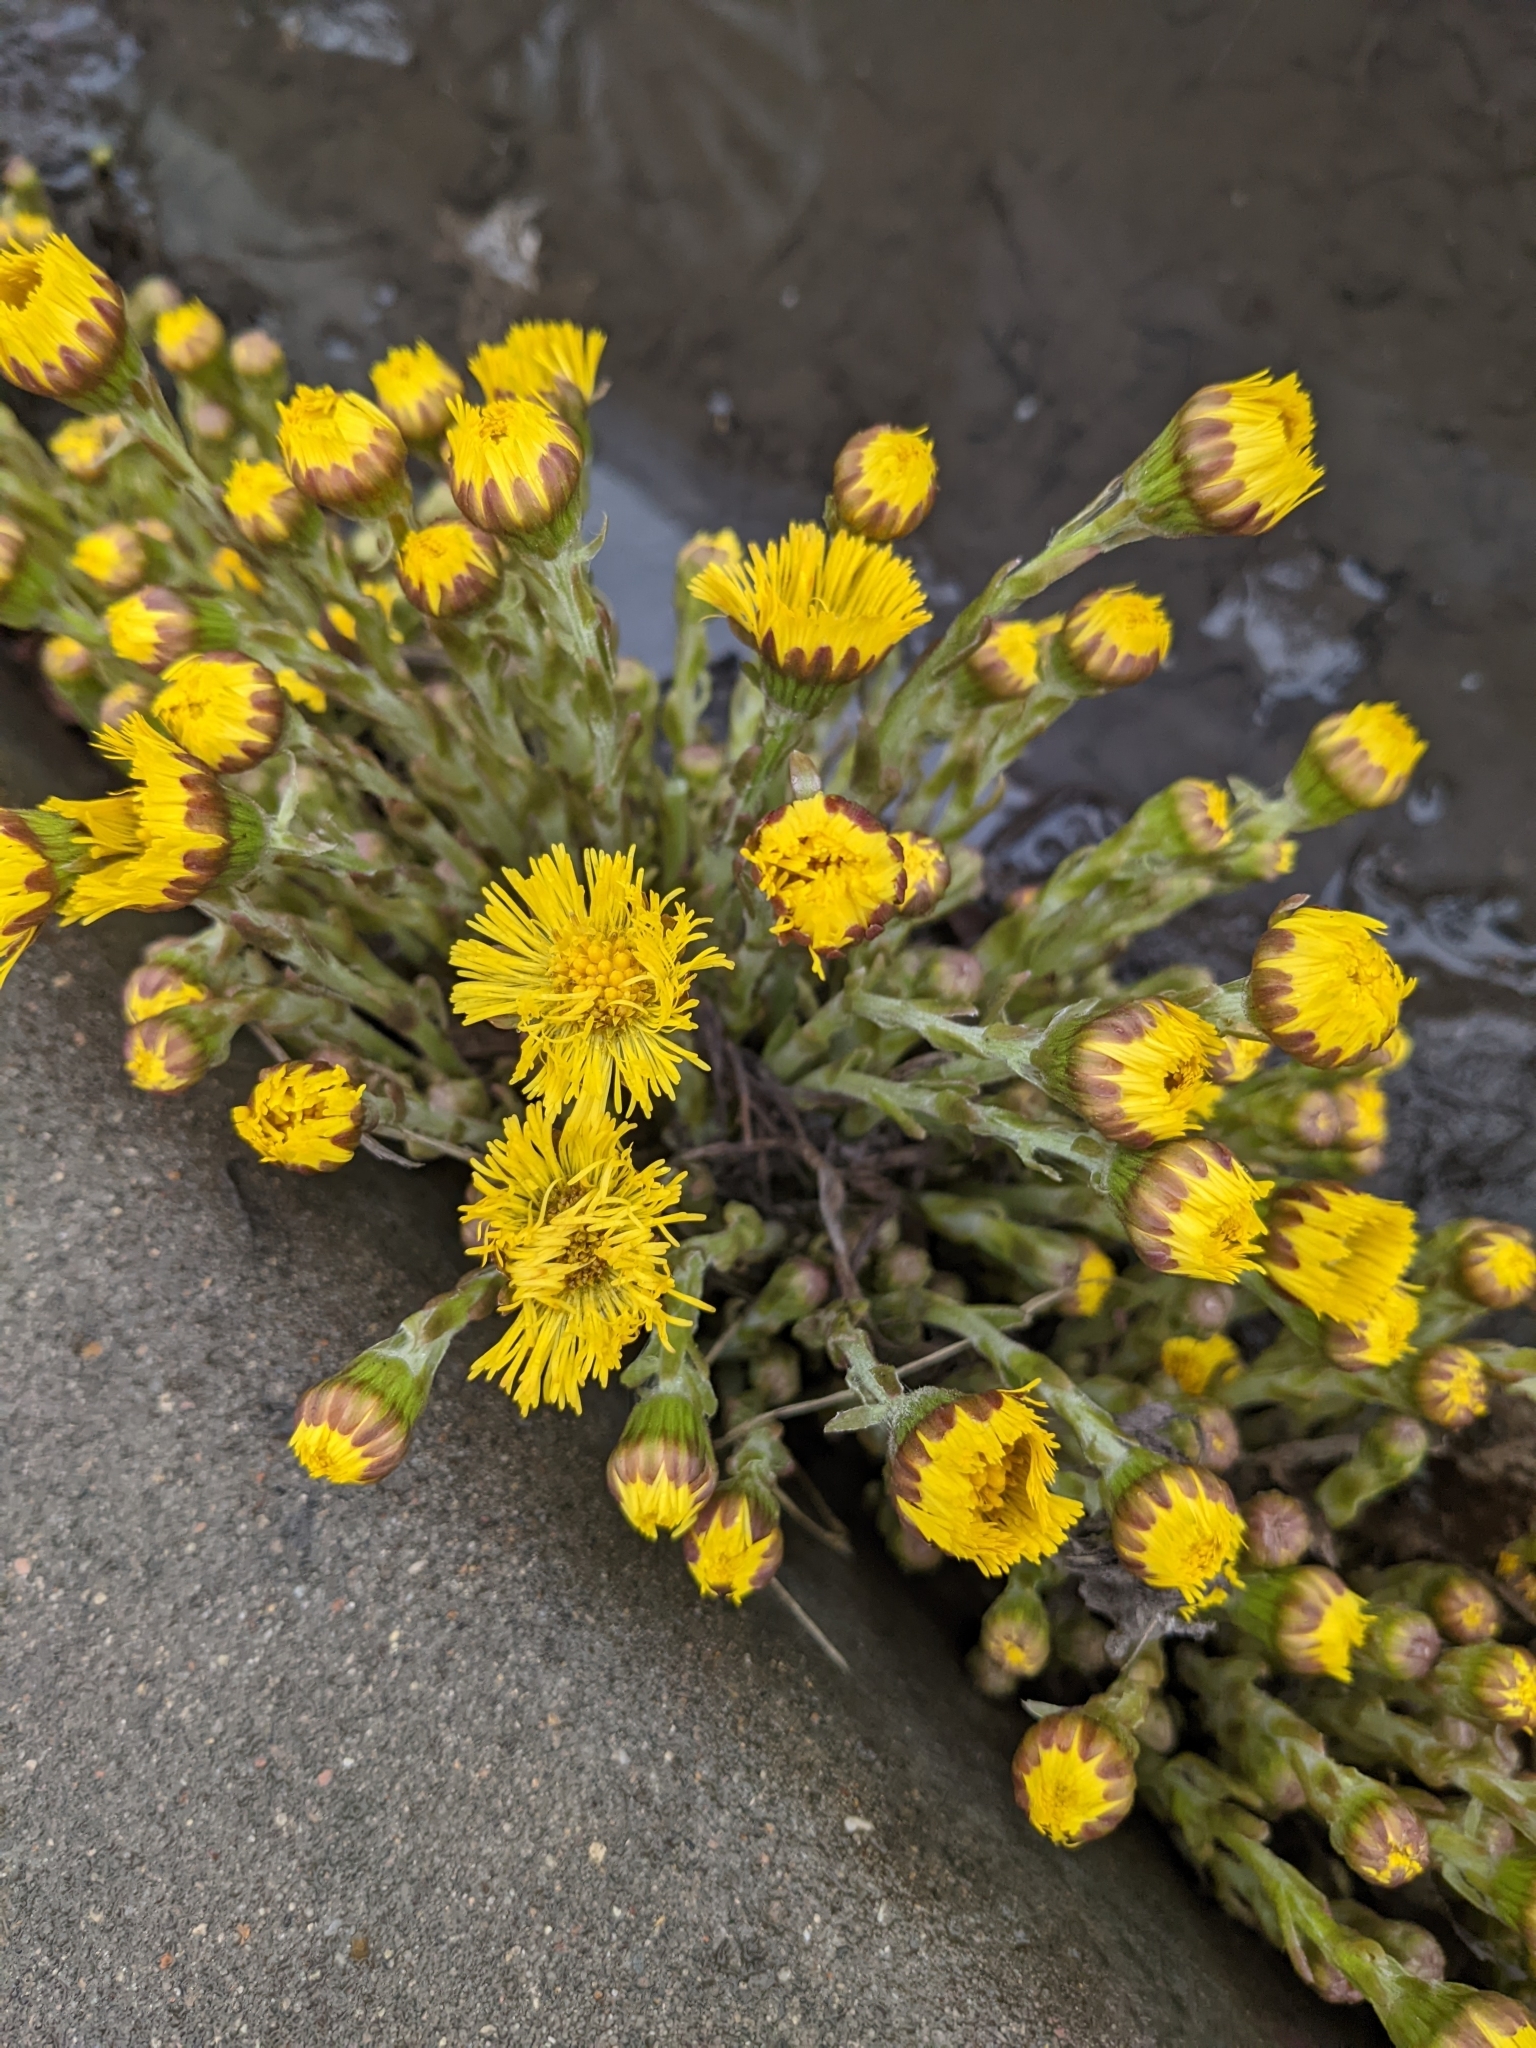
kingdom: Plantae
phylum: Tracheophyta
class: Magnoliopsida
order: Asterales
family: Asteraceae
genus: Tussilago
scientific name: Tussilago farfara
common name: Coltsfoot
